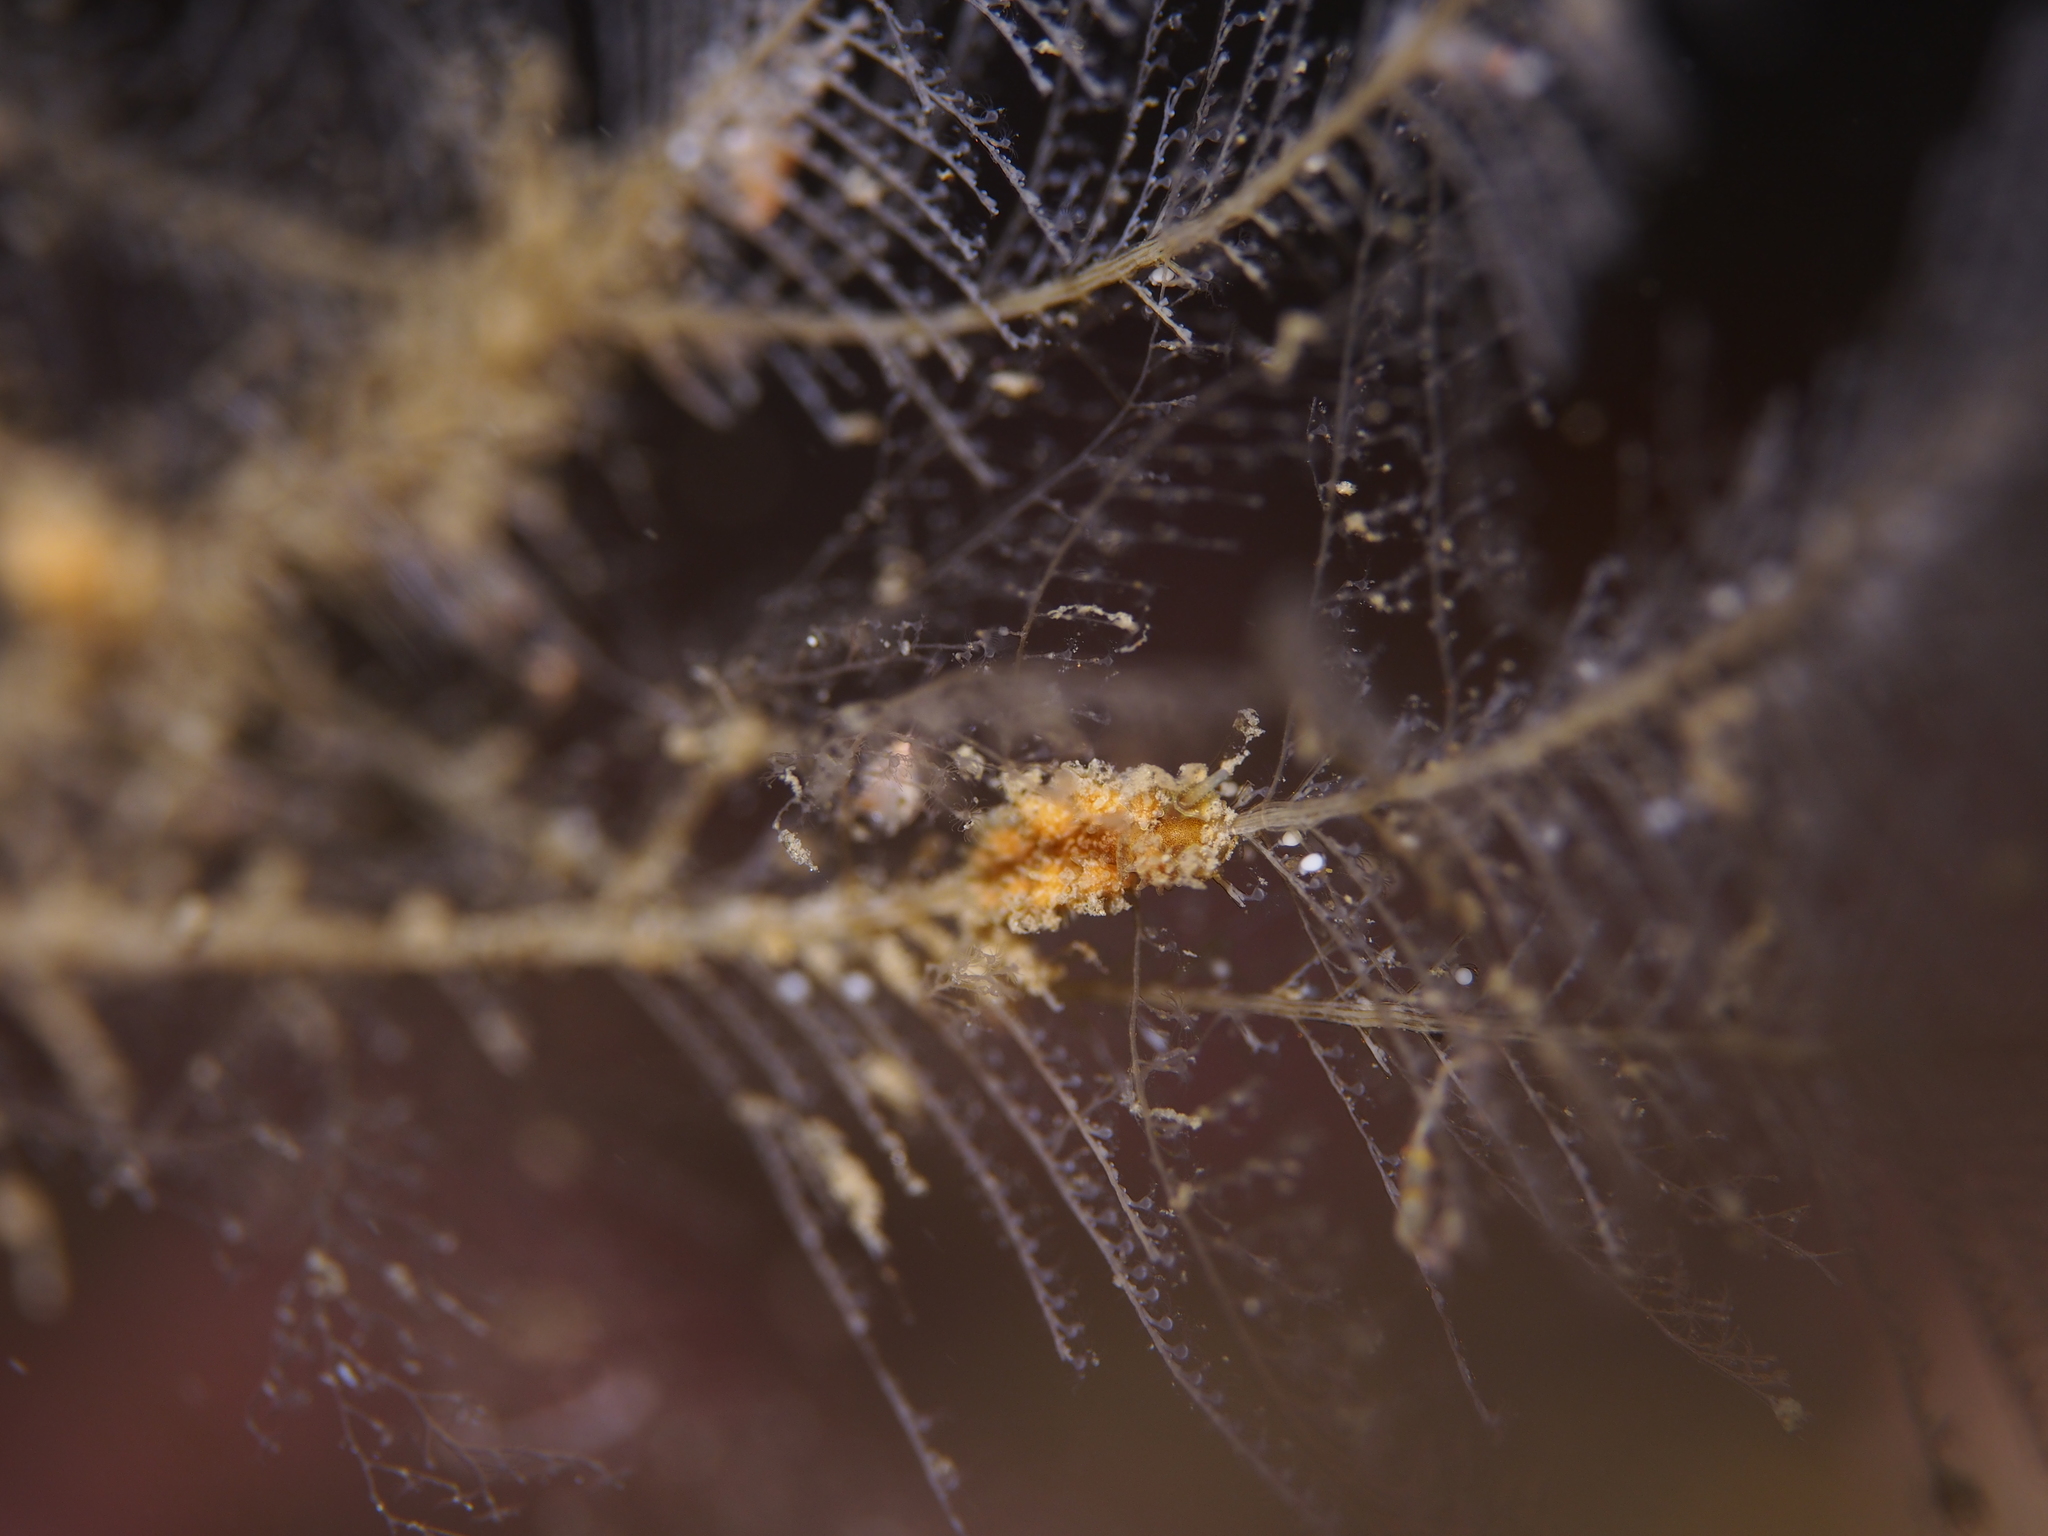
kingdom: Animalia
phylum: Mollusca
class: Gastropoda
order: Nudibranchia
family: Dotidae
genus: Doto
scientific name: Doto hystrix
